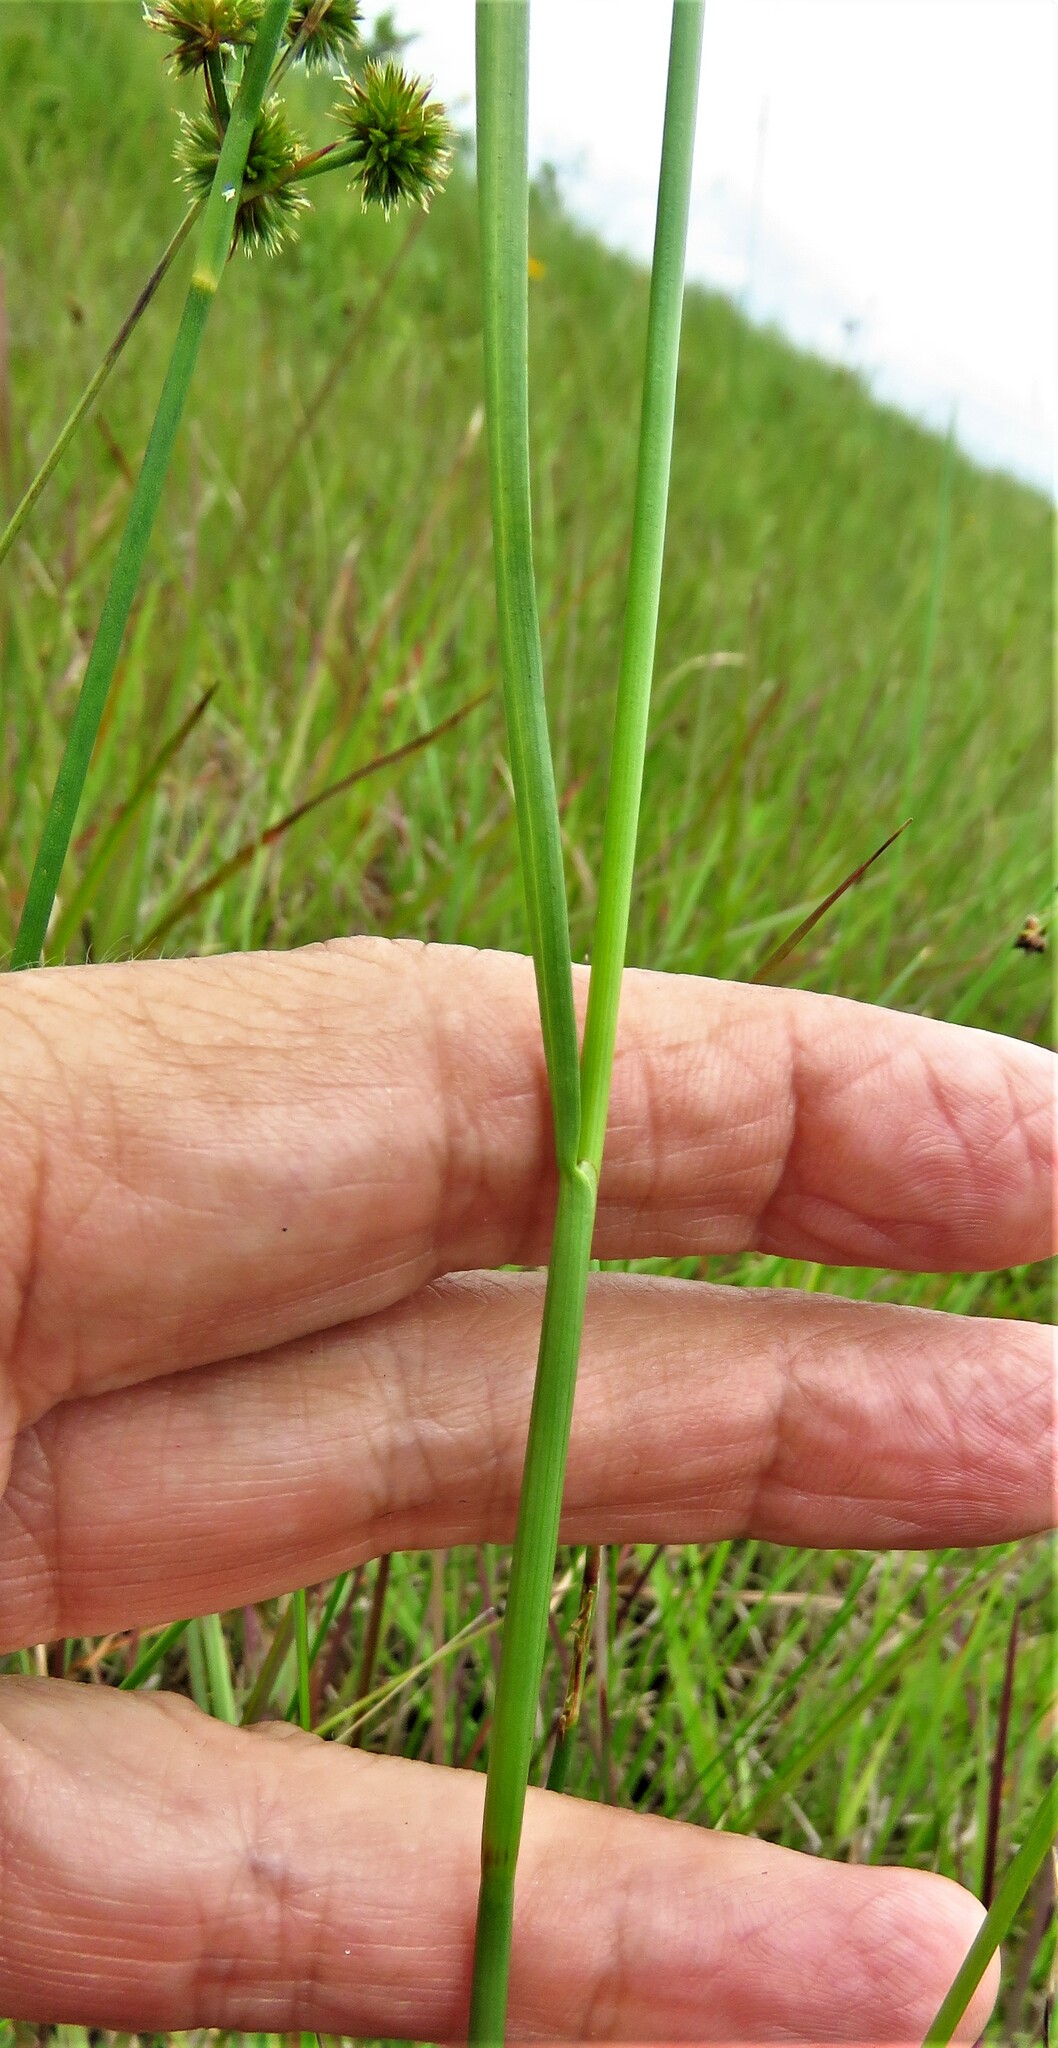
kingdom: Plantae
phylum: Tracheophyta
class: Liliopsida
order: Poales
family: Juncaceae
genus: Juncus
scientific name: Juncus marginatus
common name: Grass-leaf rush
